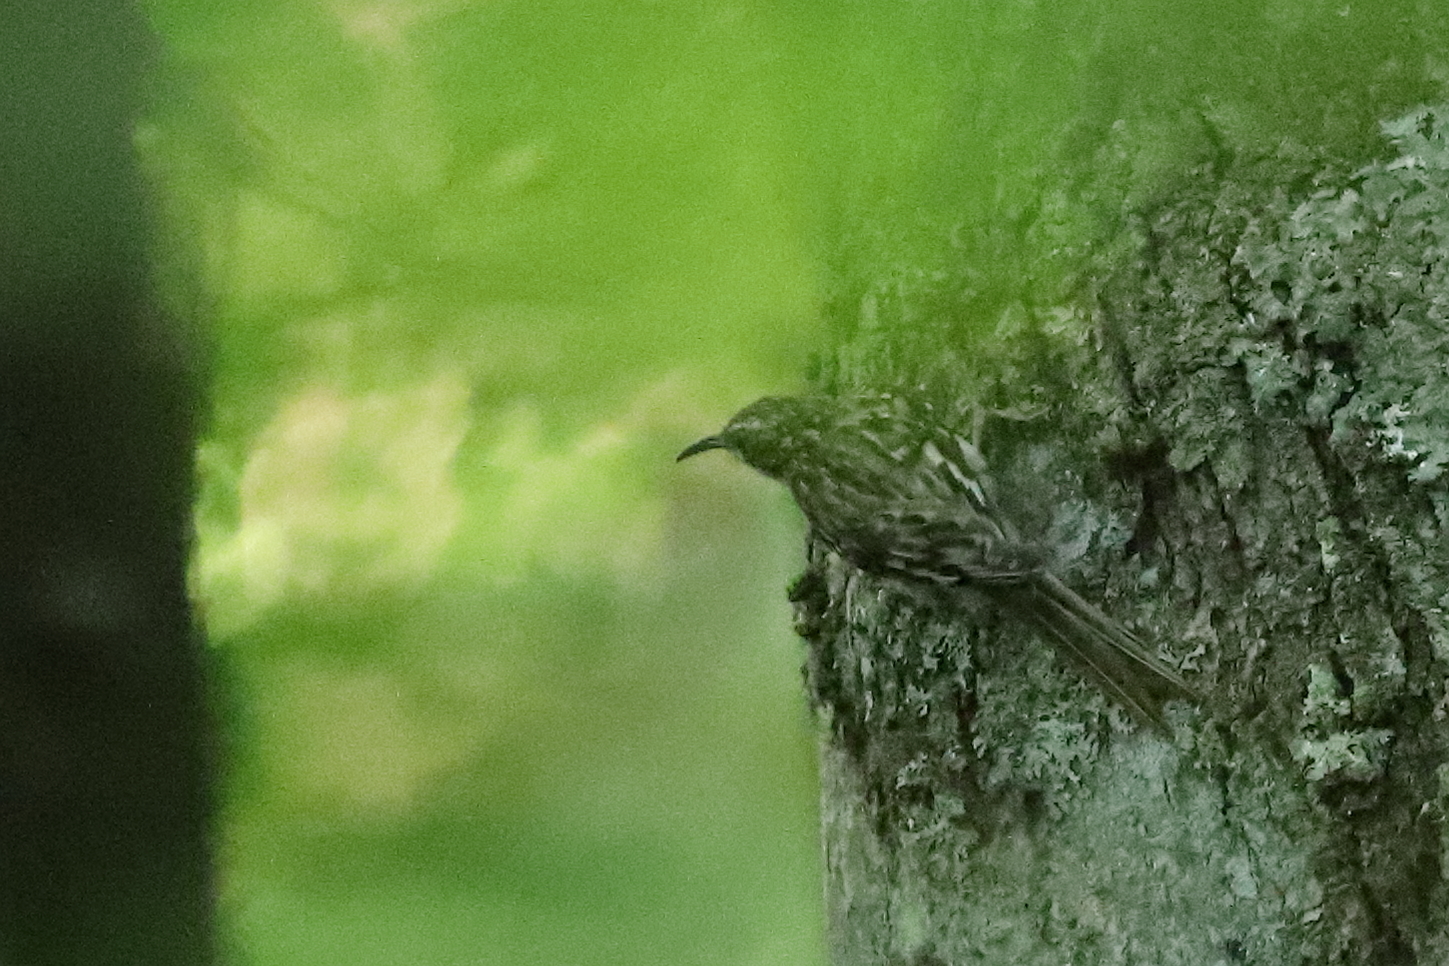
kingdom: Animalia
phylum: Chordata
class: Aves
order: Passeriformes
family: Certhiidae
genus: Certhia
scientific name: Certhia americana
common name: Brown creeper
